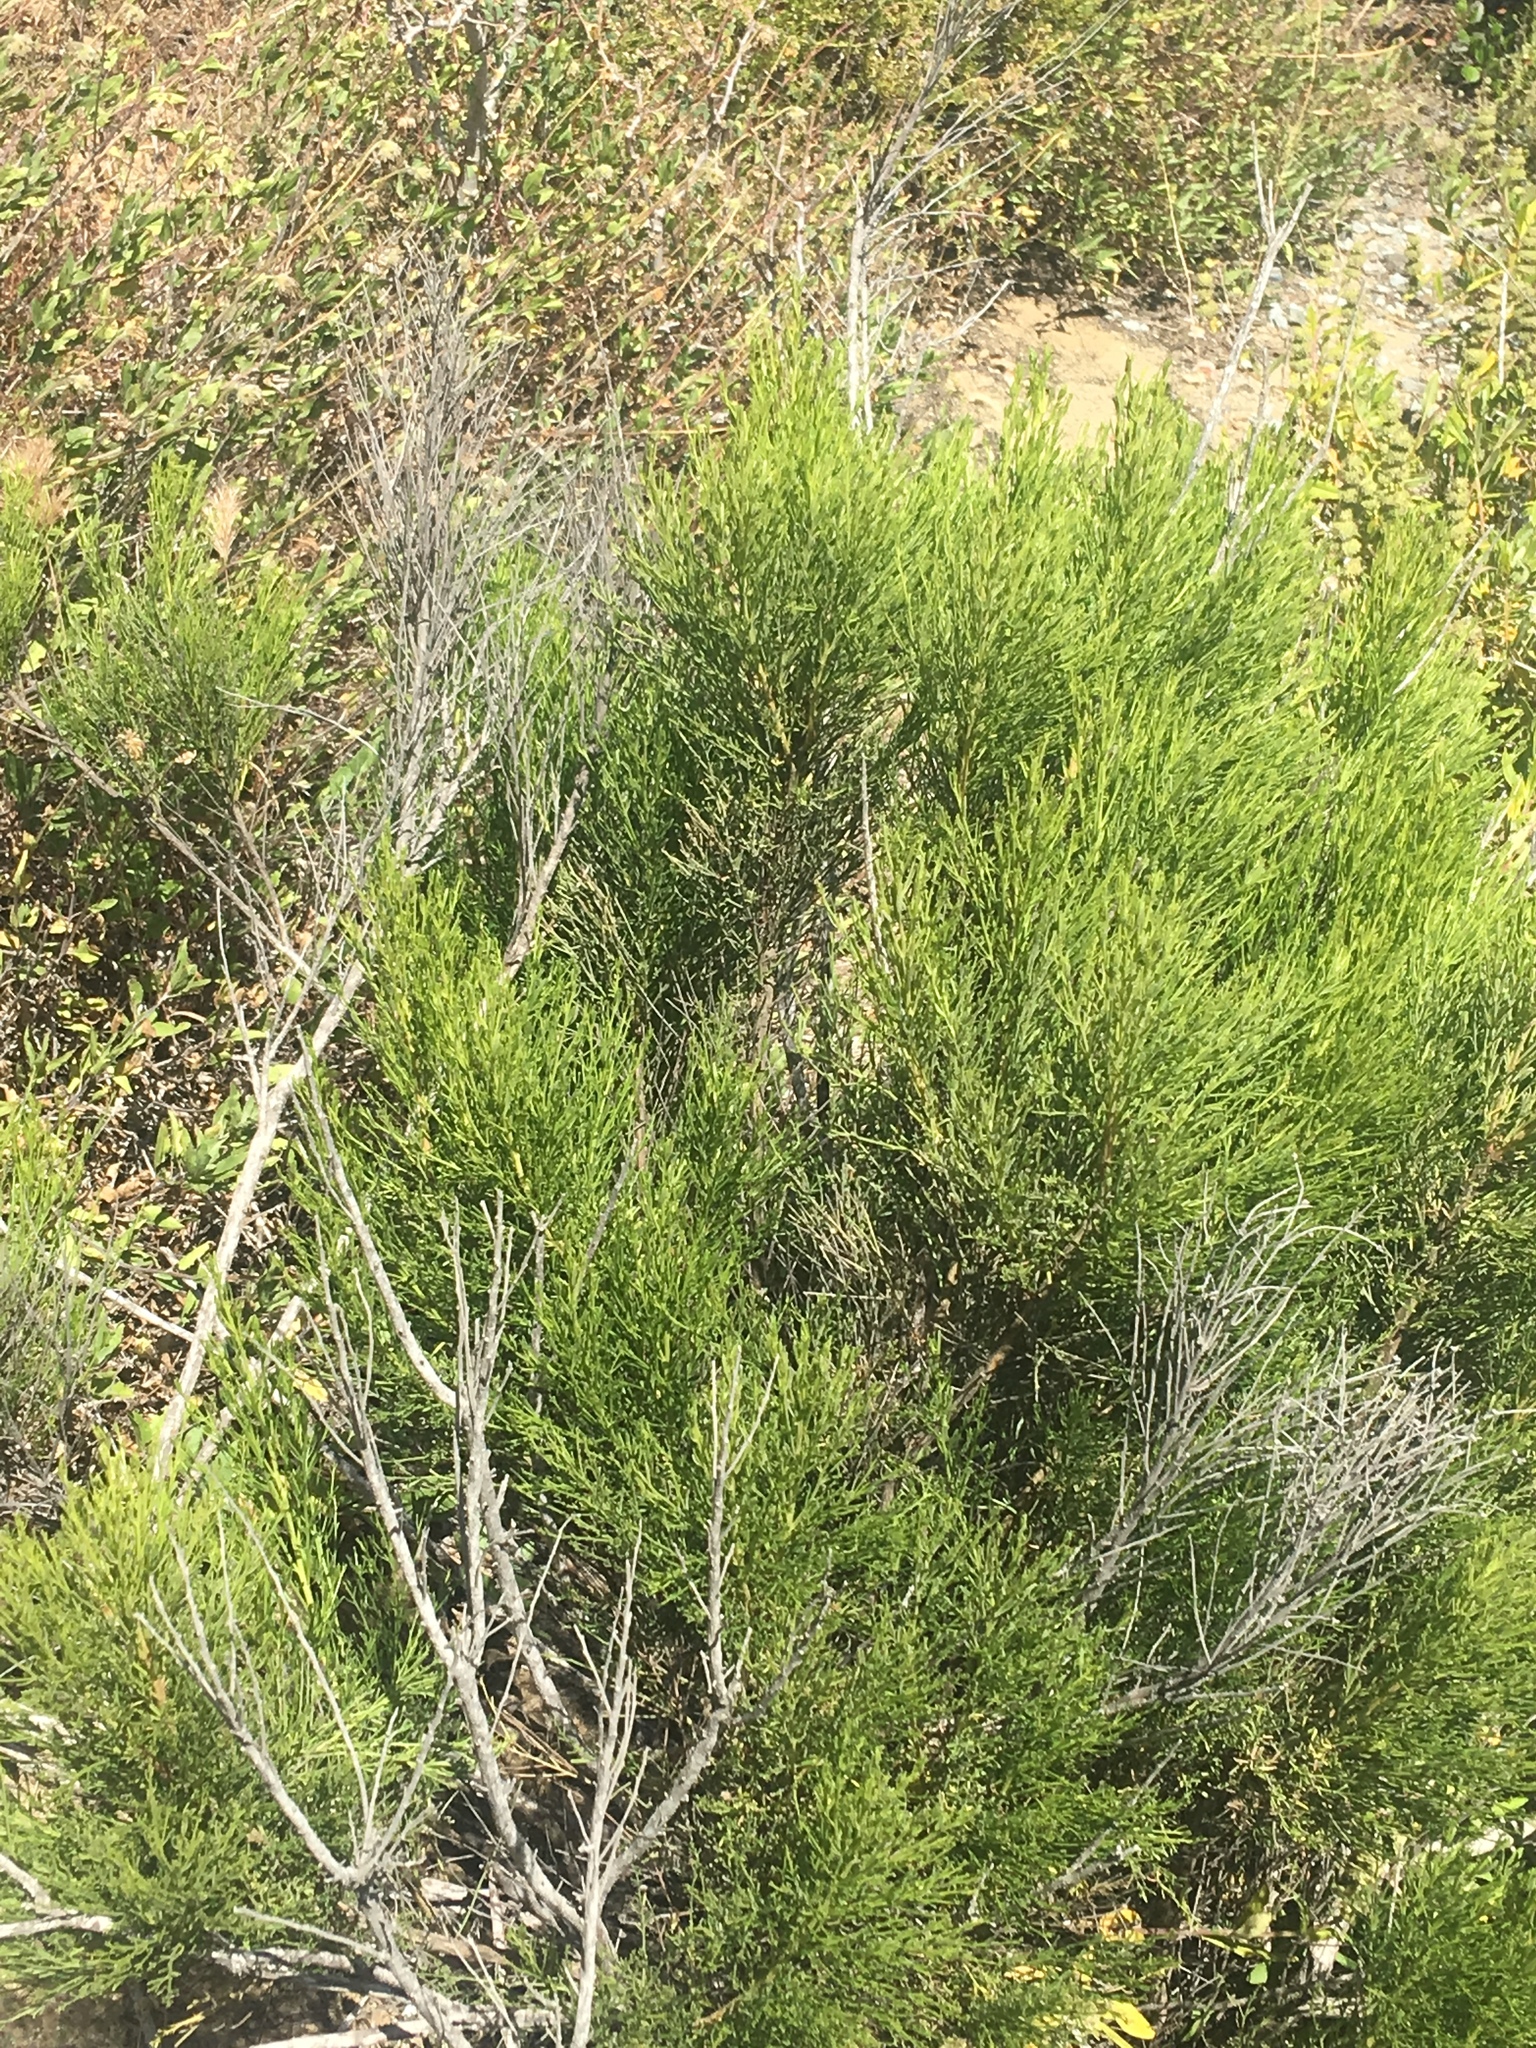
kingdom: Plantae
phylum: Tracheophyta
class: Magnoliopsida
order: Asterales
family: Asteraceae
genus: Baccharis
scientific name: Baccharis sarothroides
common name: Desert-broom
